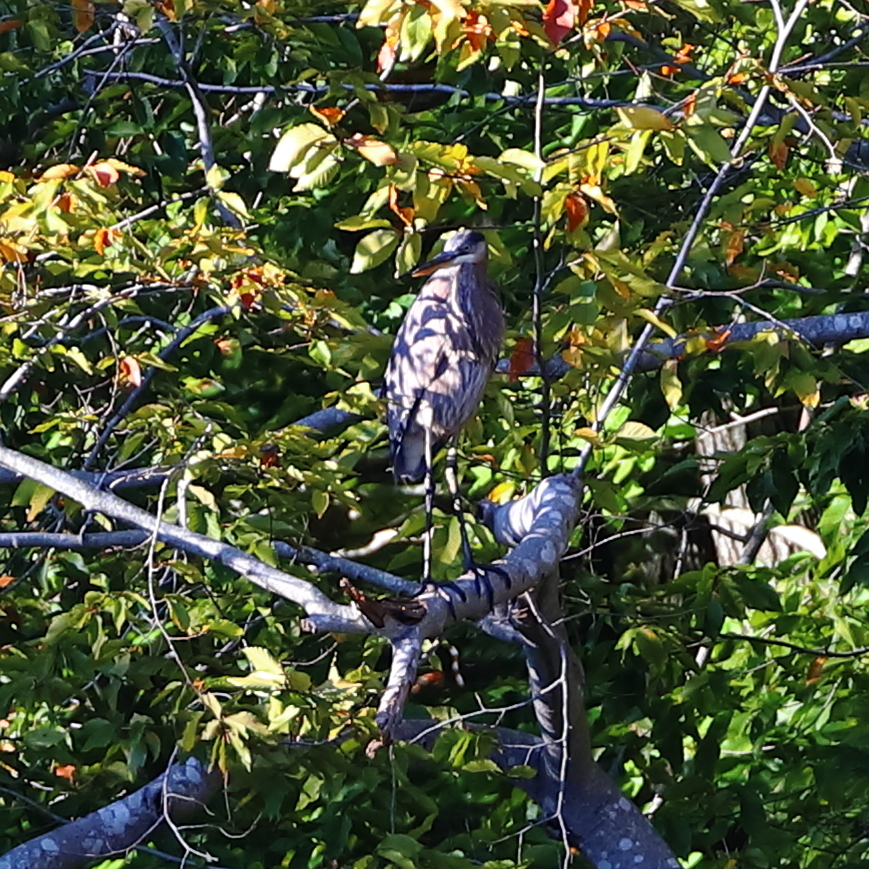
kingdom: Animalia
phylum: Chordata
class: Aves
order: Pelecaniformes
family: Ardeidae
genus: Ardea
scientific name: Ardea herodias
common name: Great blue heron
